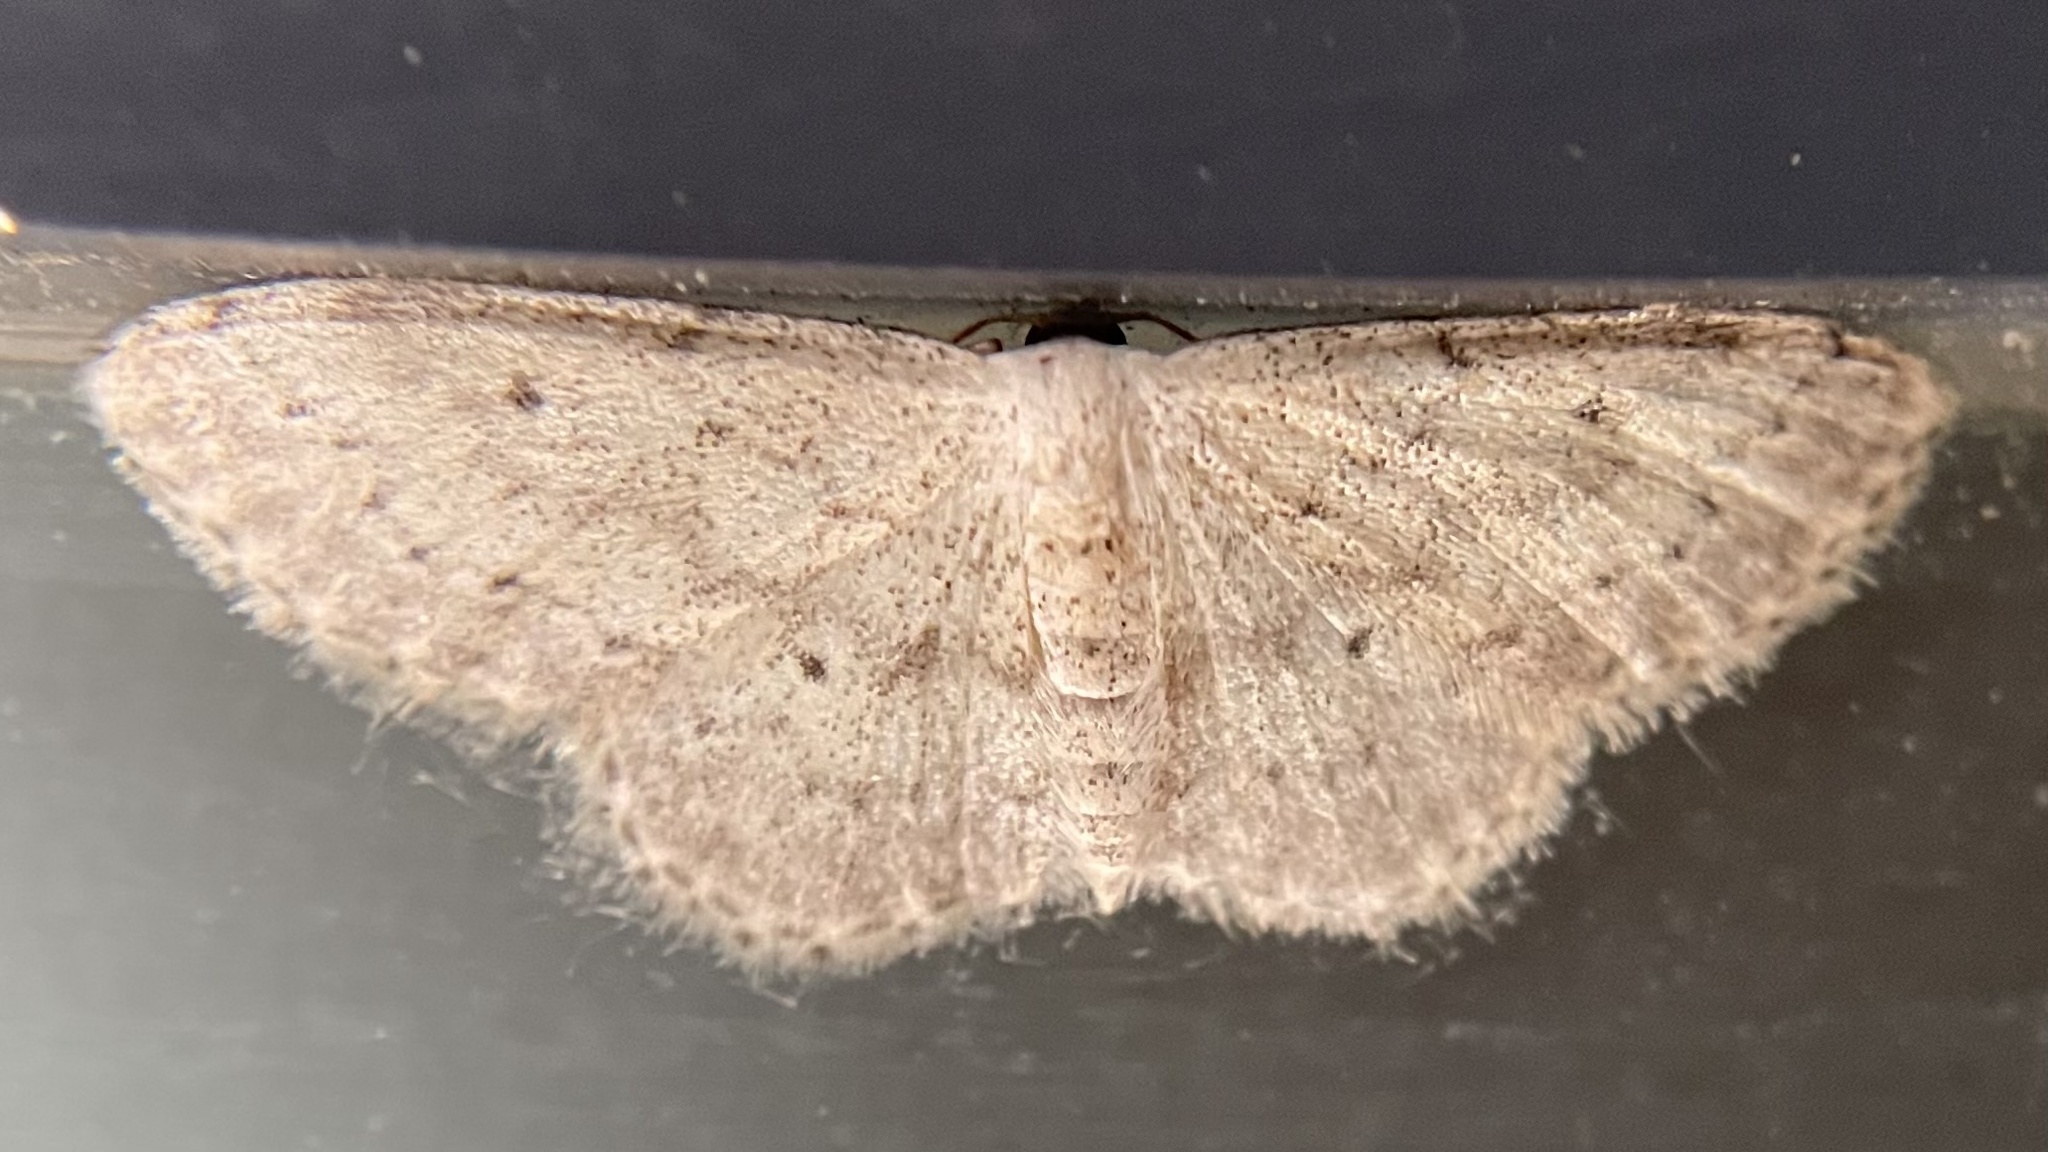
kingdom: Animalia
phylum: Arthropoda
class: Insecta
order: Lepidoptera
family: Geometridae
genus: Idaea
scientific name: Idaea seriata
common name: Small dusty wave
